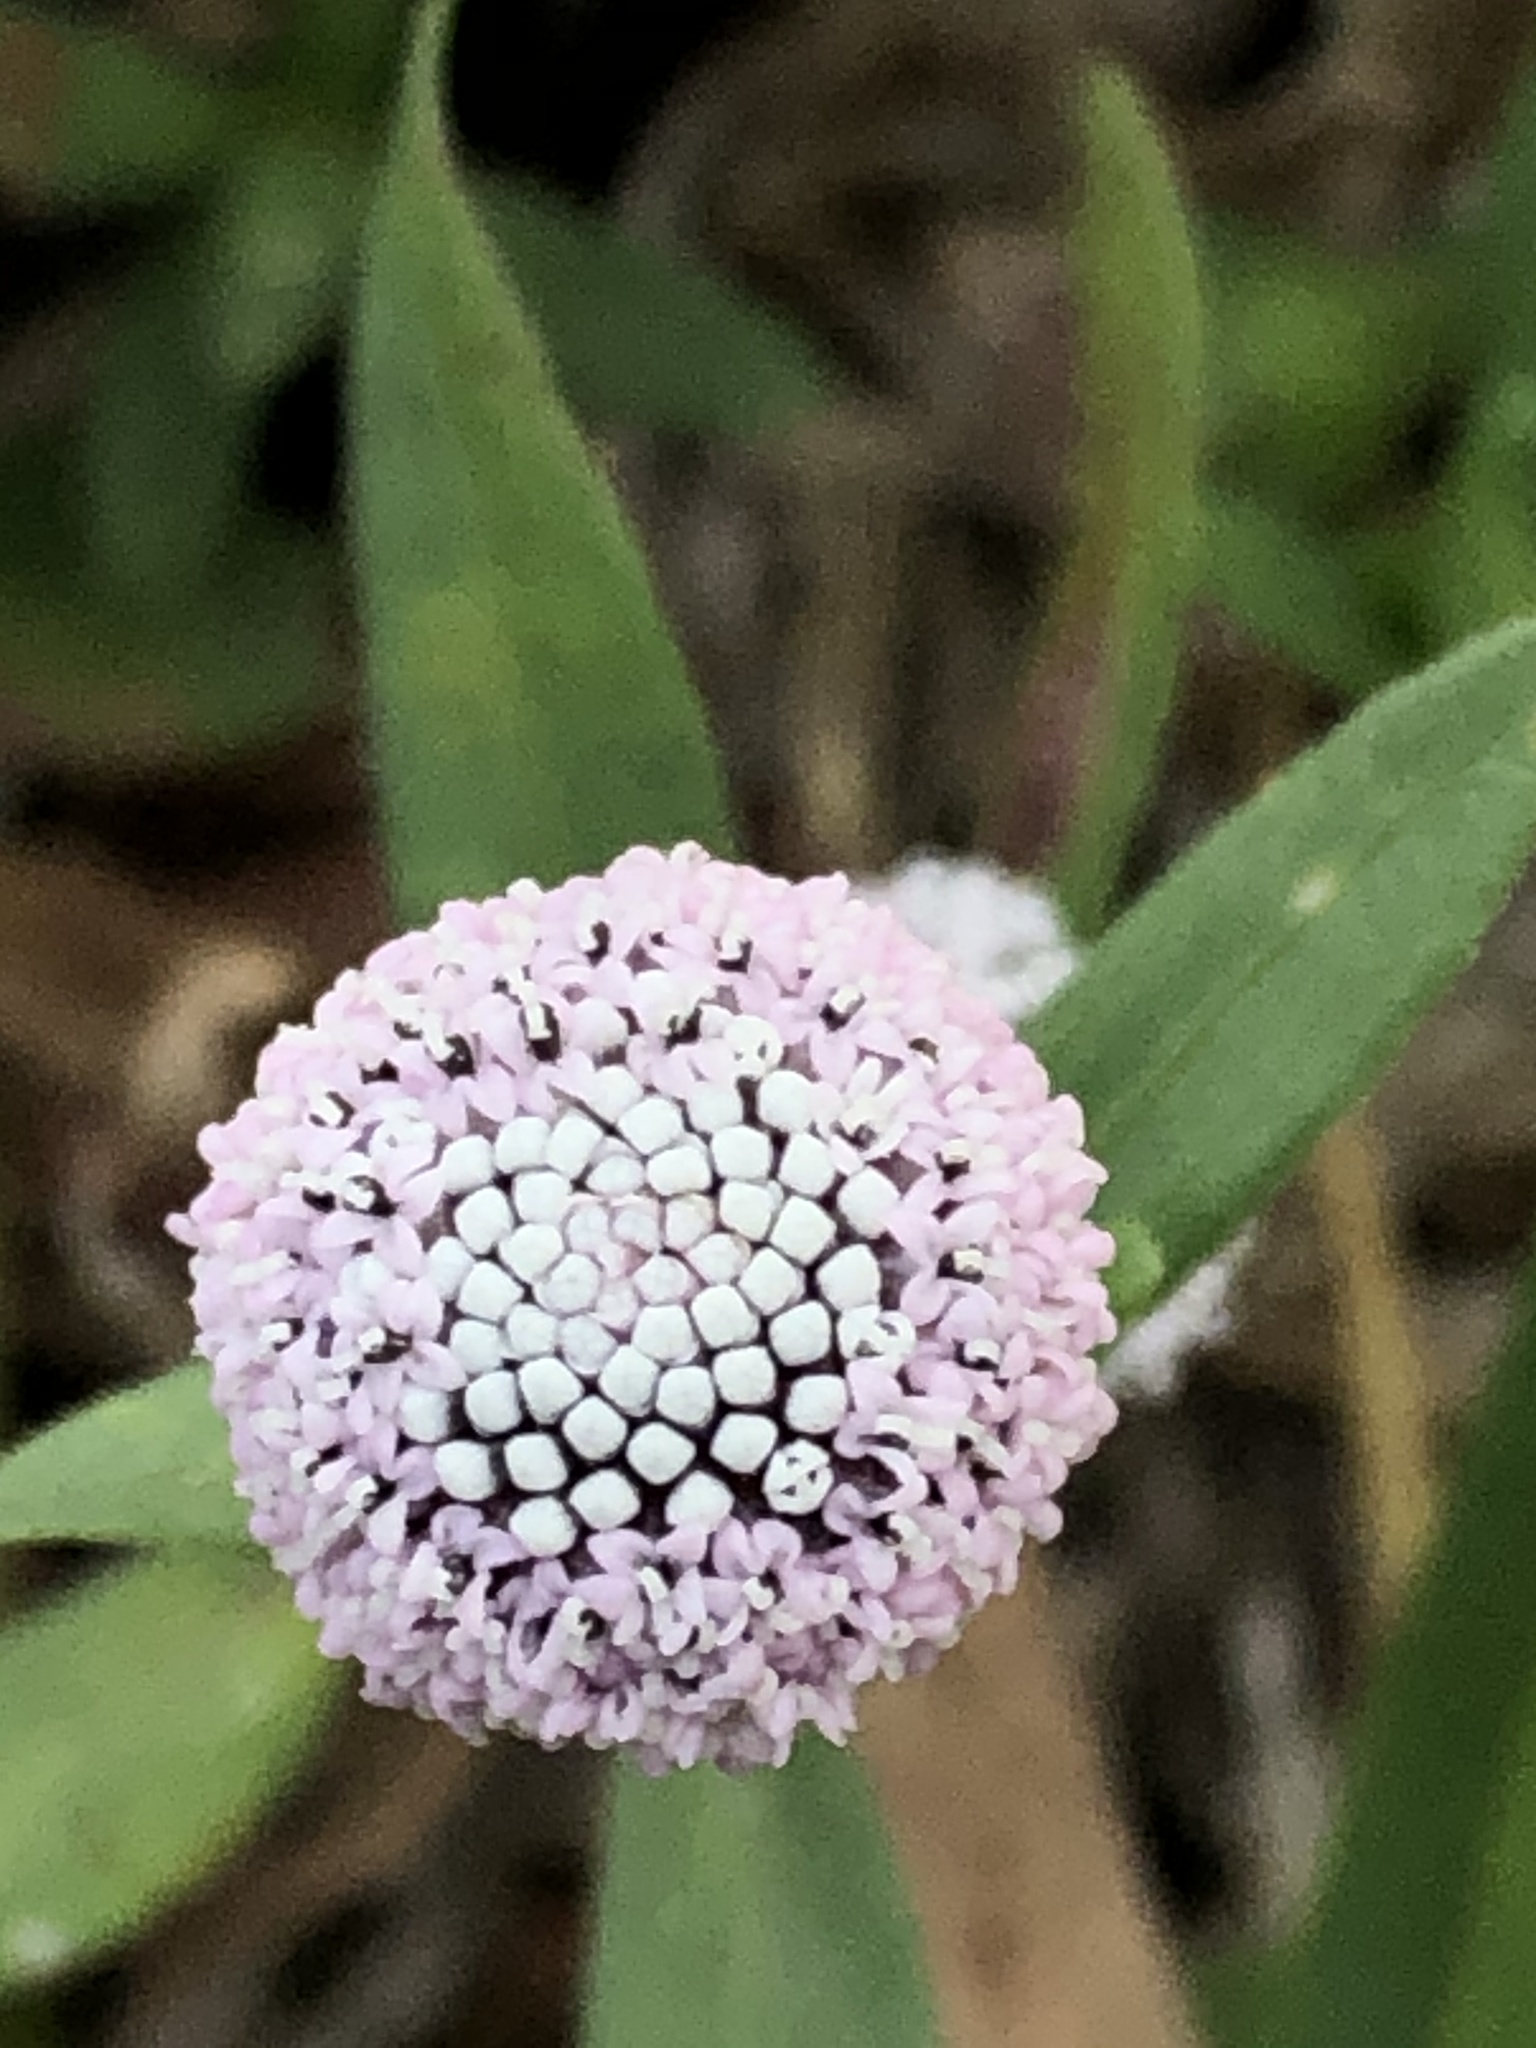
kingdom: Plantae
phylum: Tracheophyta
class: Magnoliopsida
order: Asterales
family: Asteraceae
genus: Spilanthes
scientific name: Spilanthes leiocarpa
